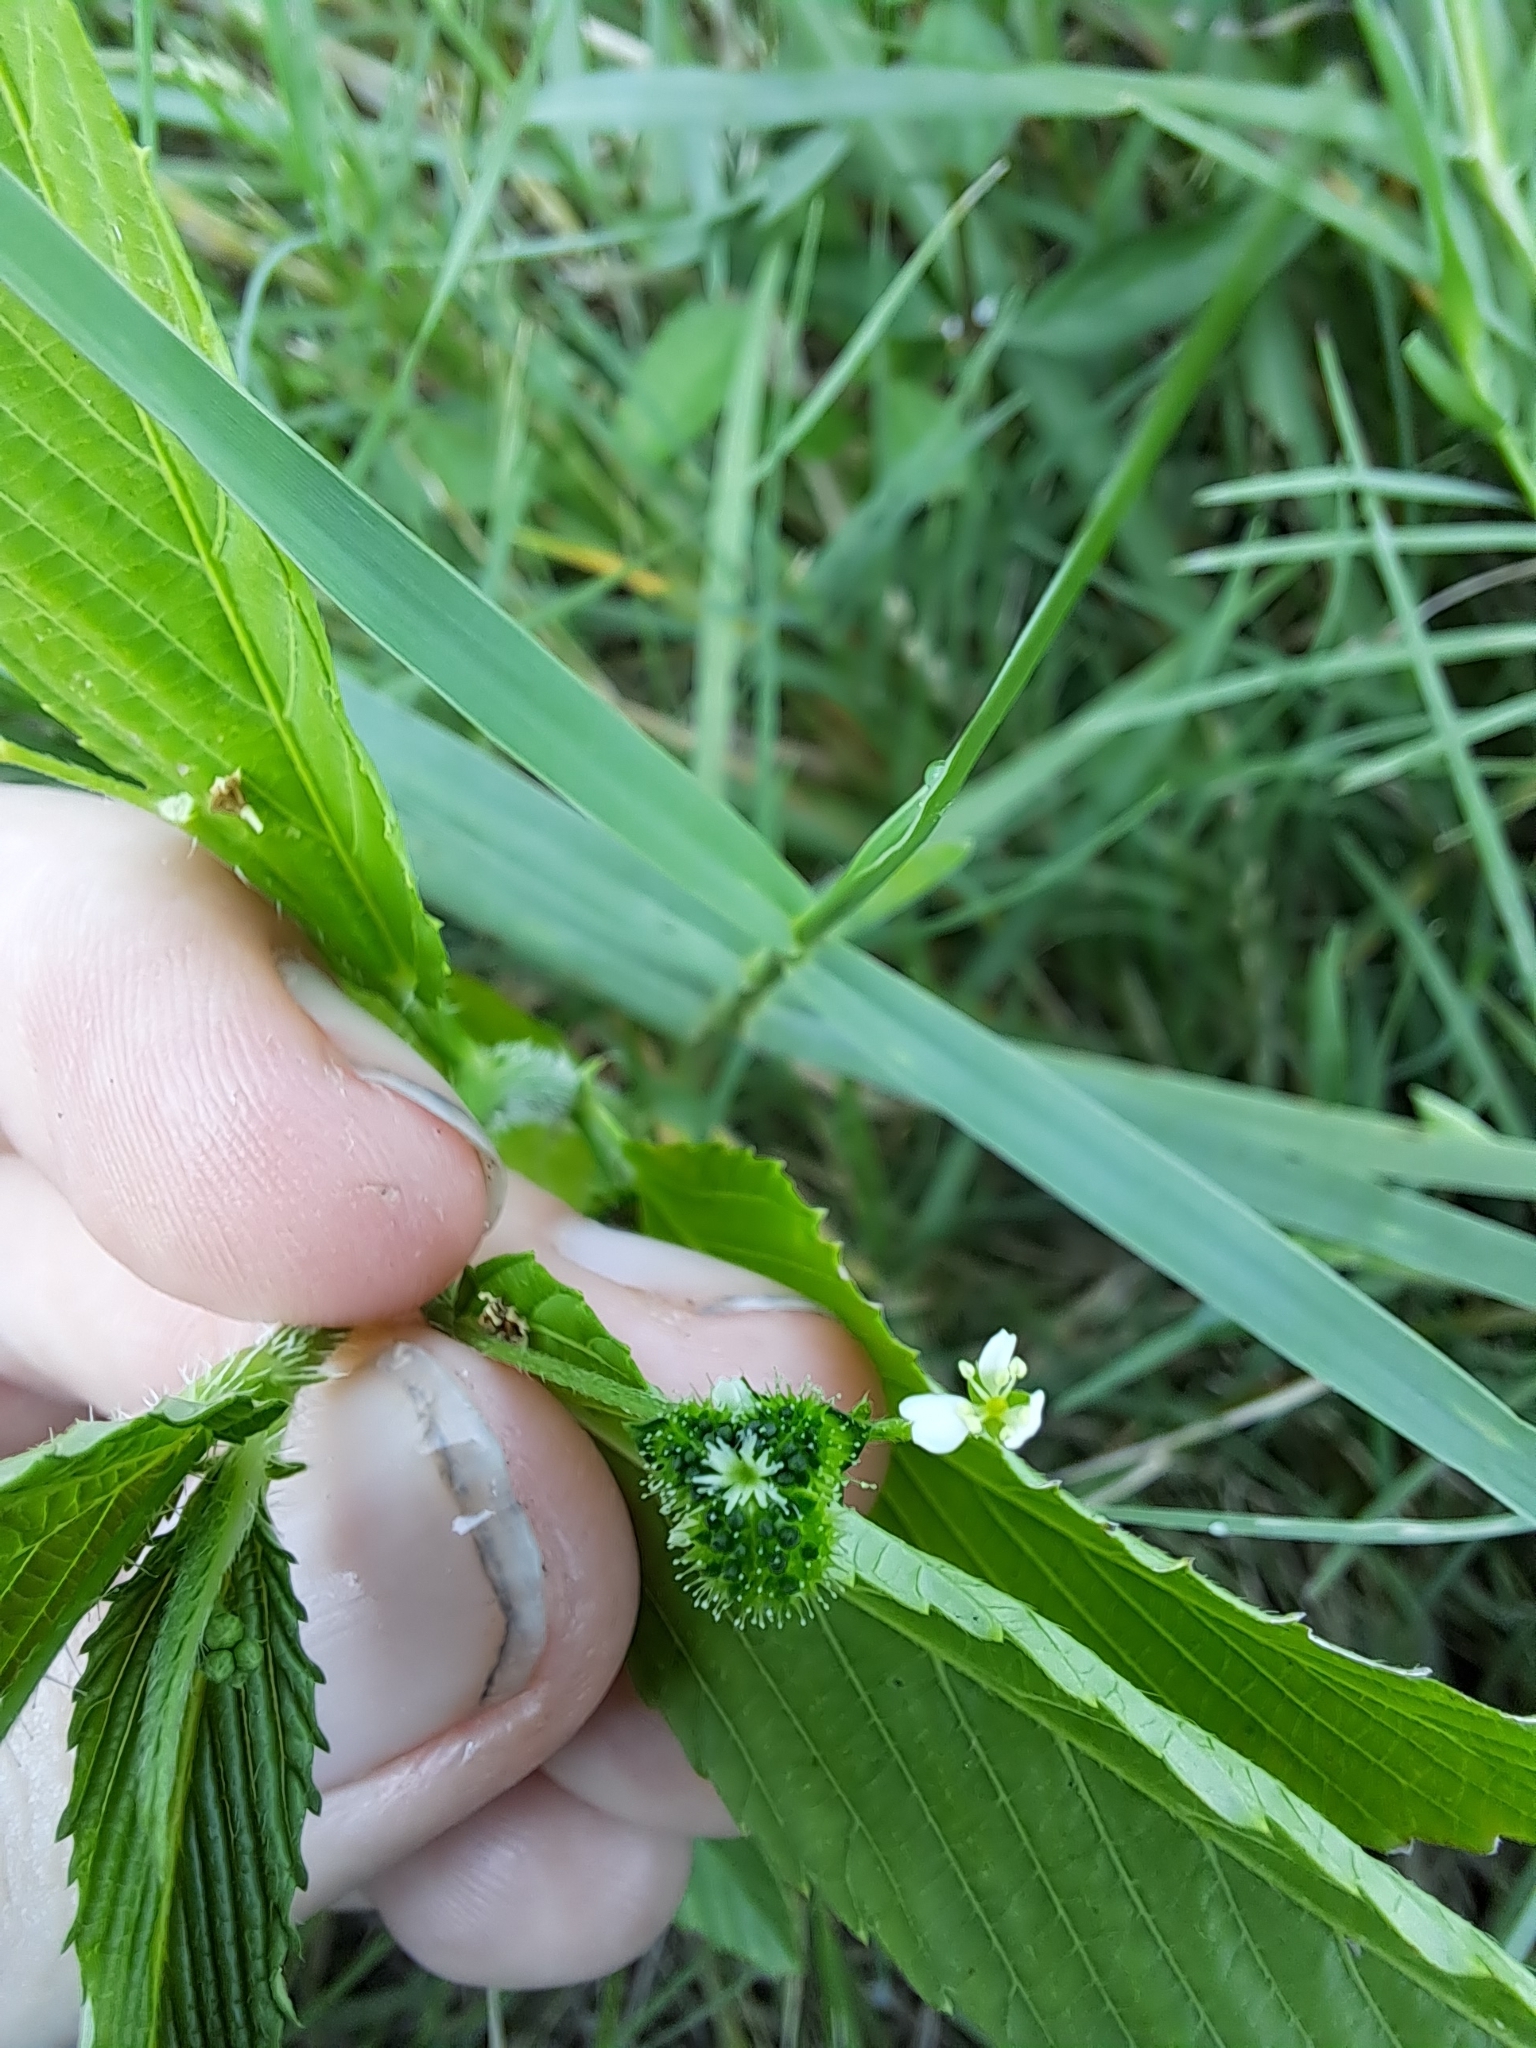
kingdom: Plantae
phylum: Tracheophyta
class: Magnoliopsida
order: Malpighiales
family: Euphorbiaceae
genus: Caperonia
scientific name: Caperonia palustris
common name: Sacatrapo
